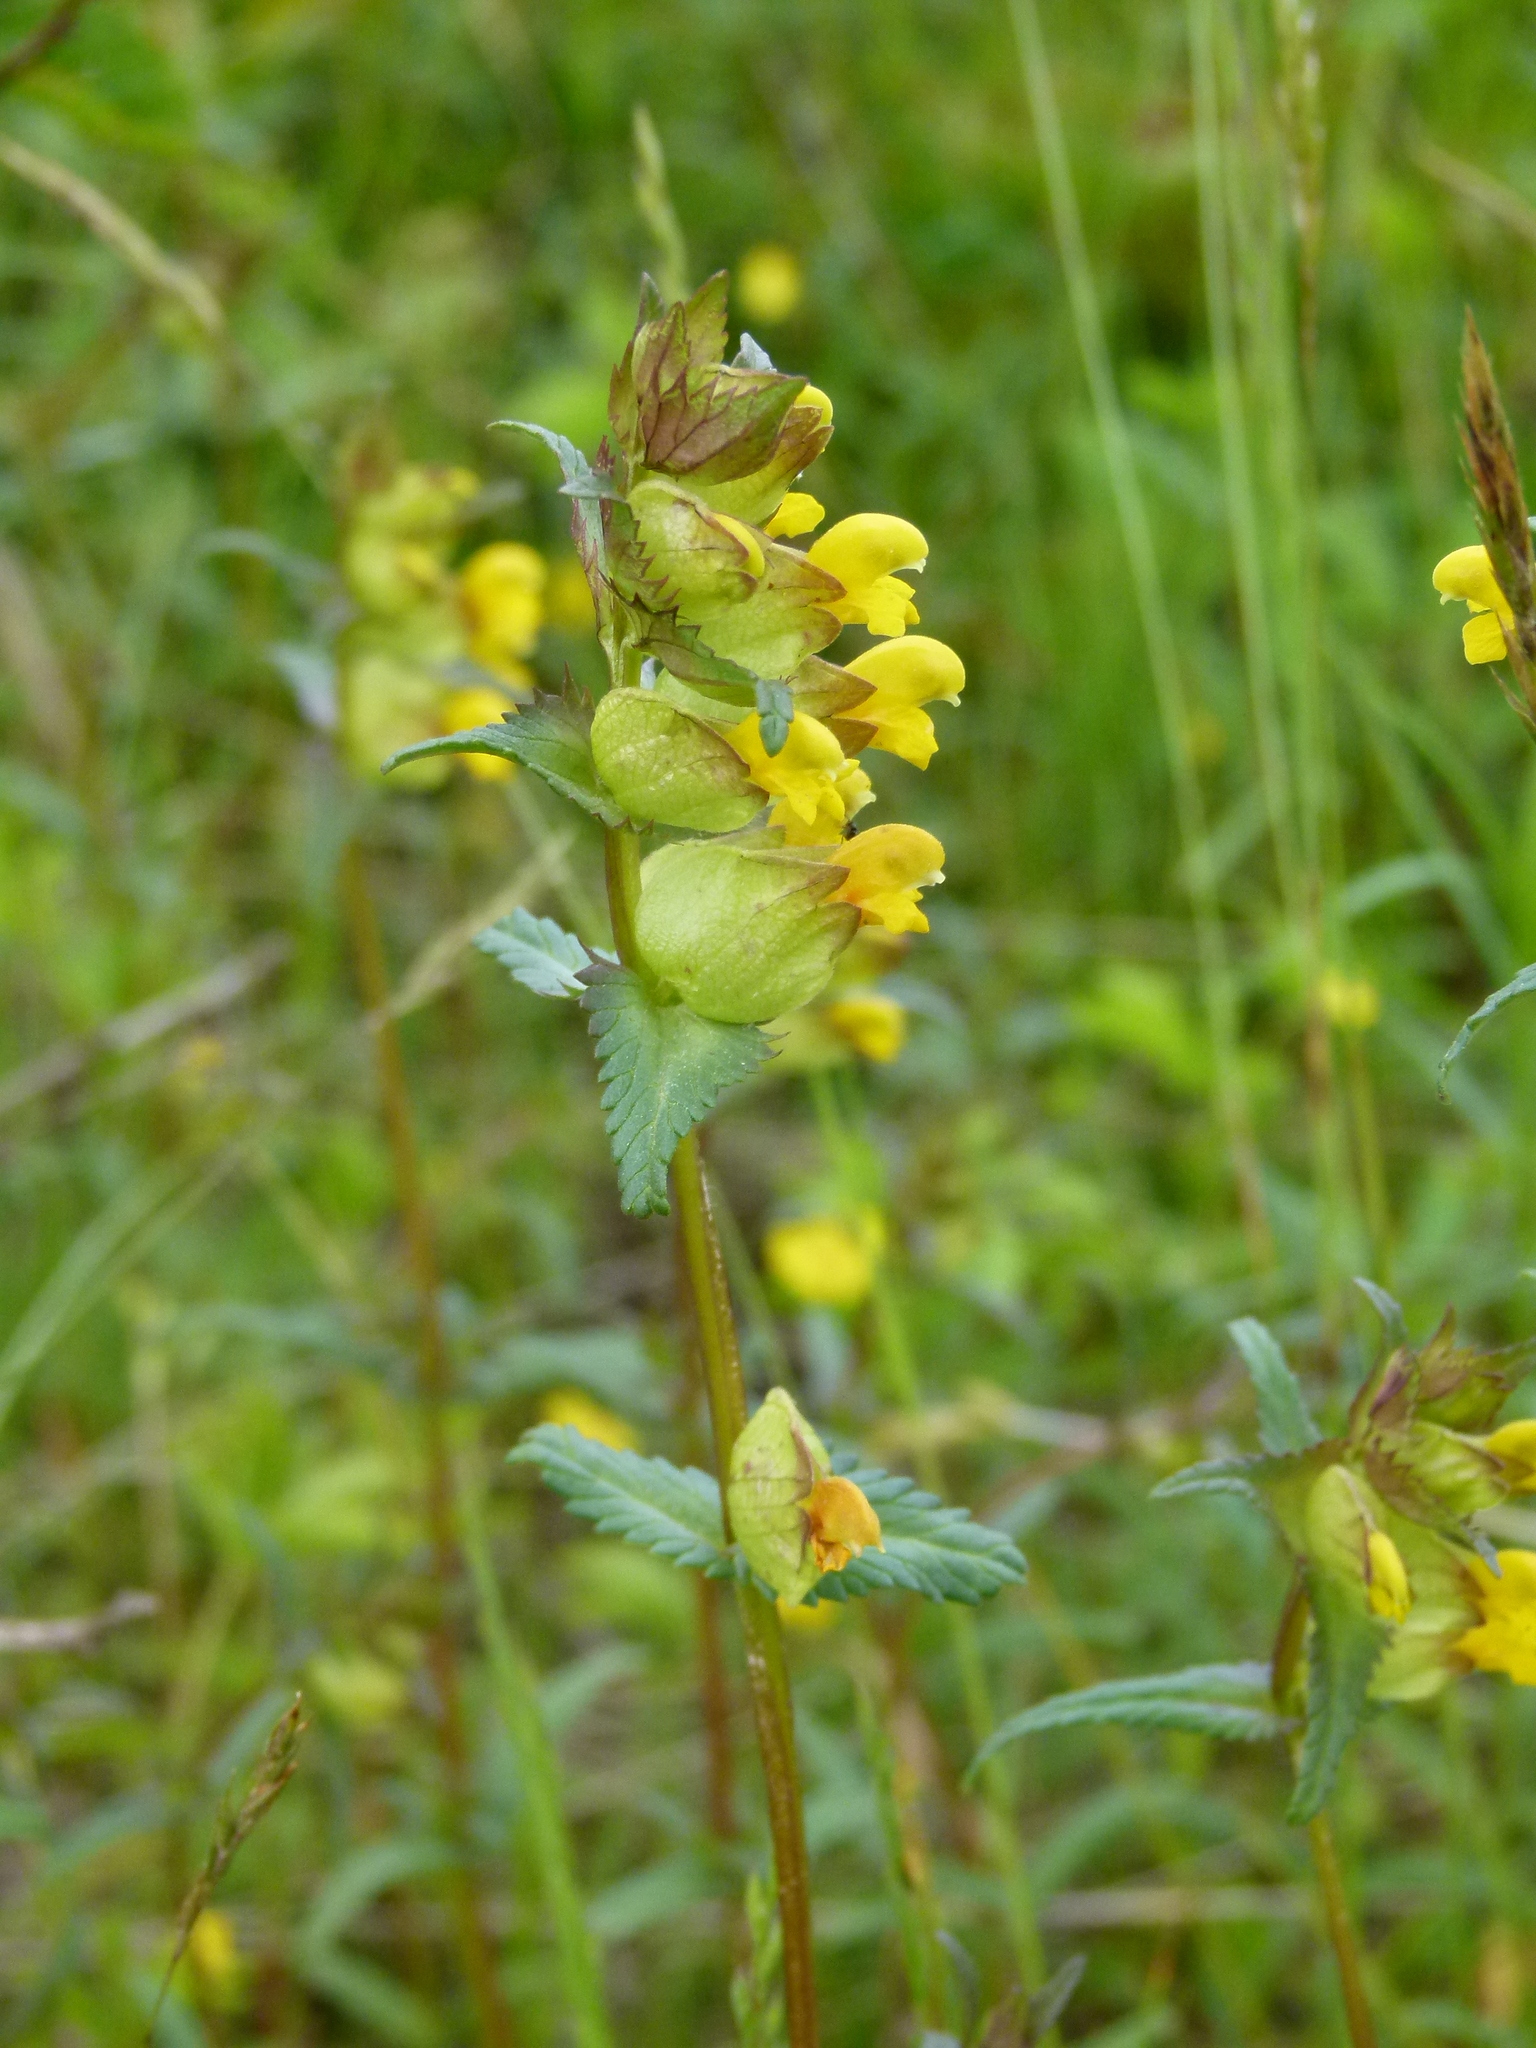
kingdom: Plantae
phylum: Tracheophyta
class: Magnoliopsida
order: Lamiales
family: Orobanchaceae
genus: Rhinanthus
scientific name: Rhinanthus minor
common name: Yellow-rattle
